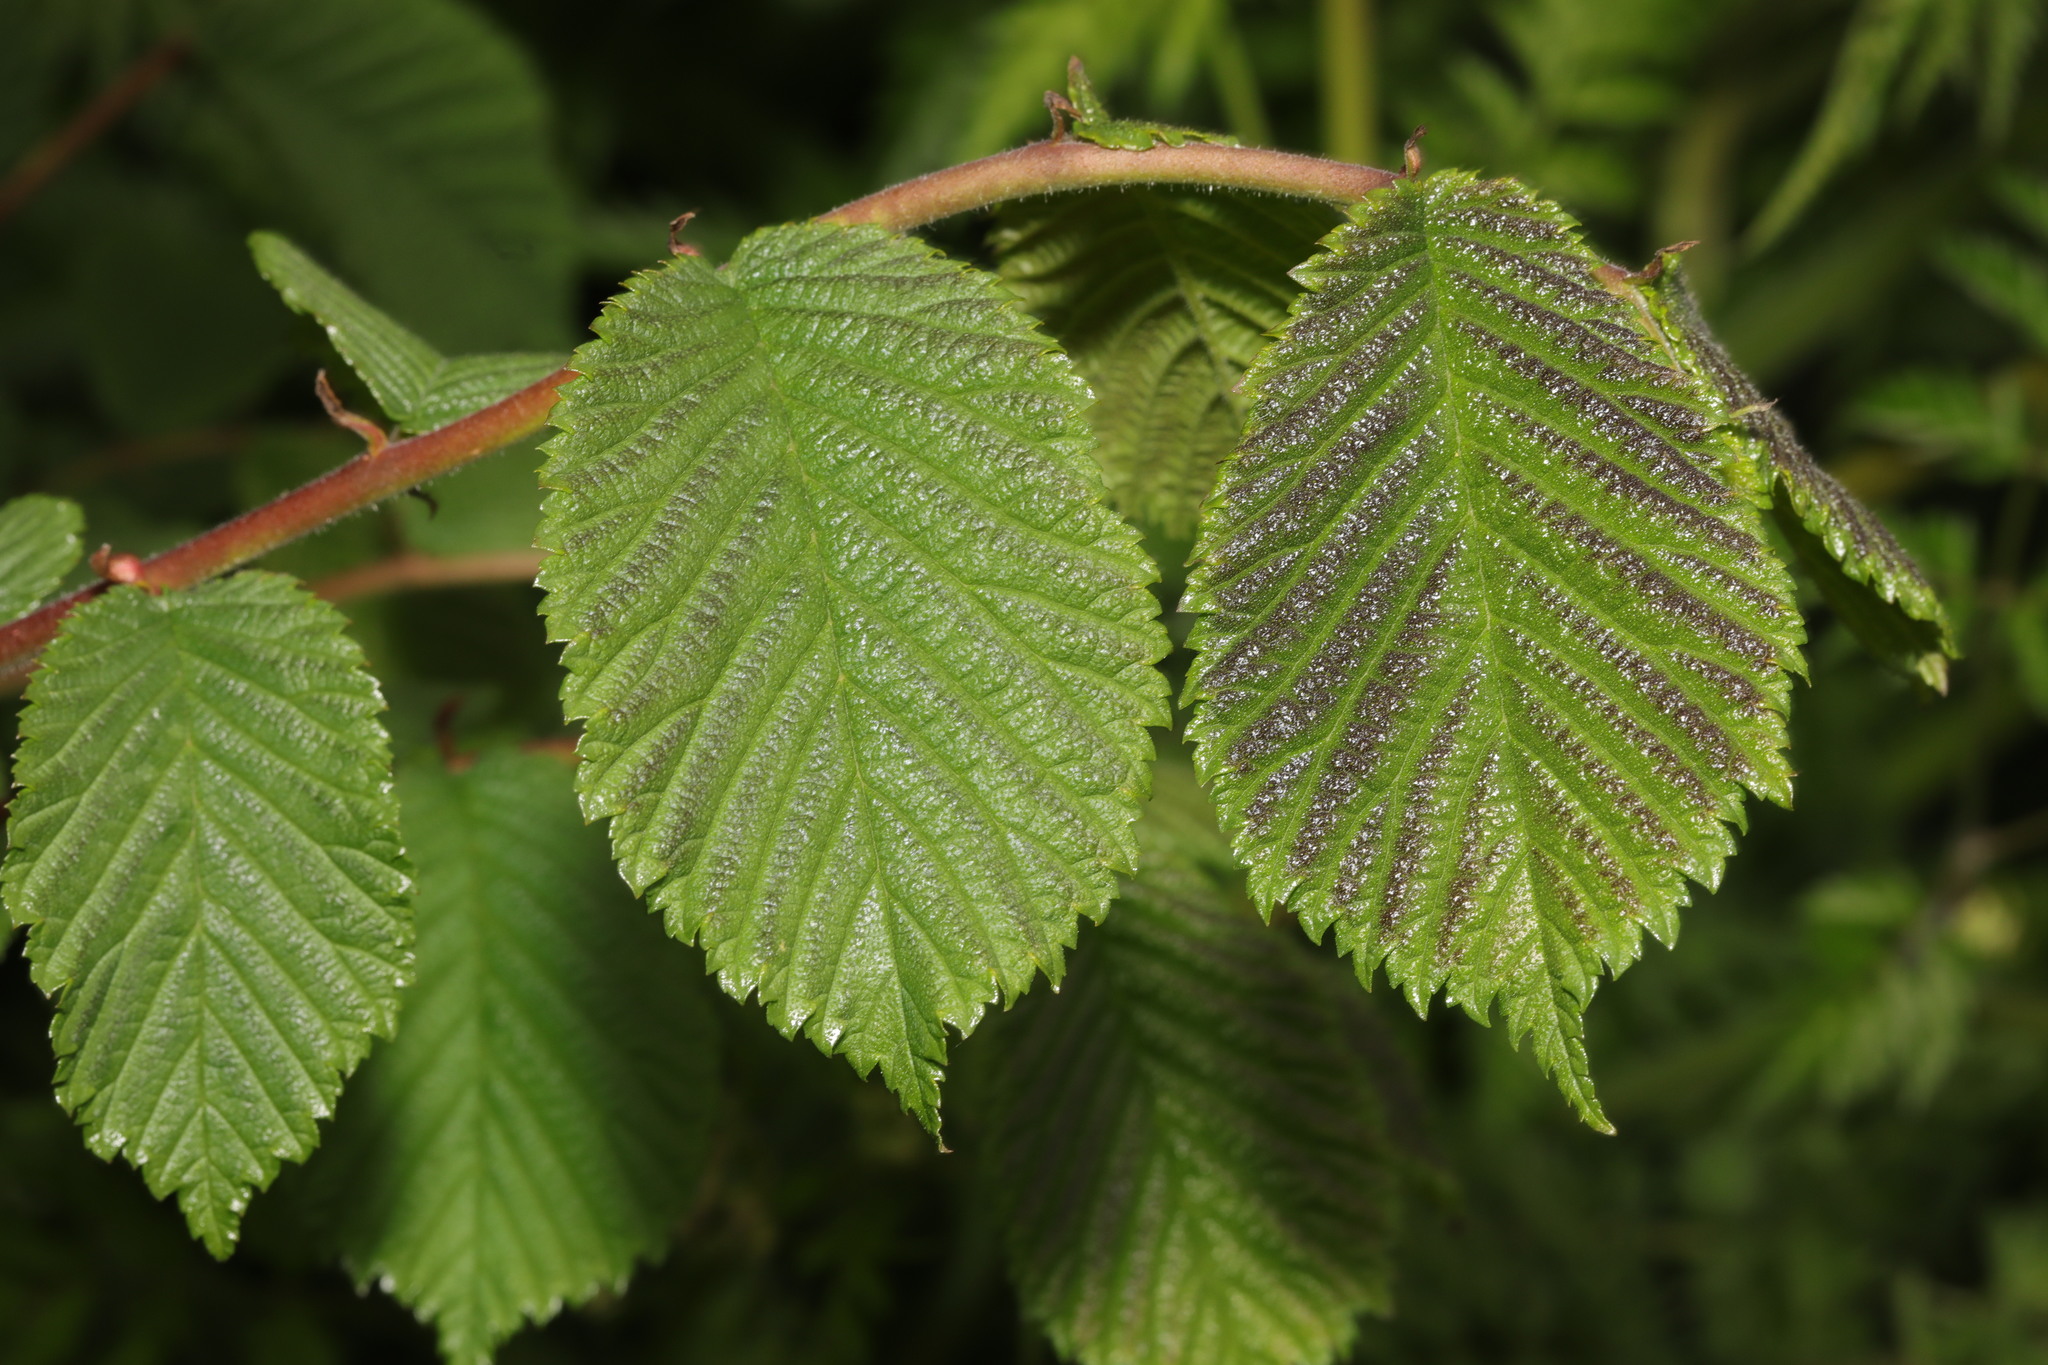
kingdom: Plantae
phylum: Tracheophyta
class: Magnoliopsida
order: Rosales
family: Ulmaceae
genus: Ulmus
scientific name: Ulmus glabra
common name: Wych elm
